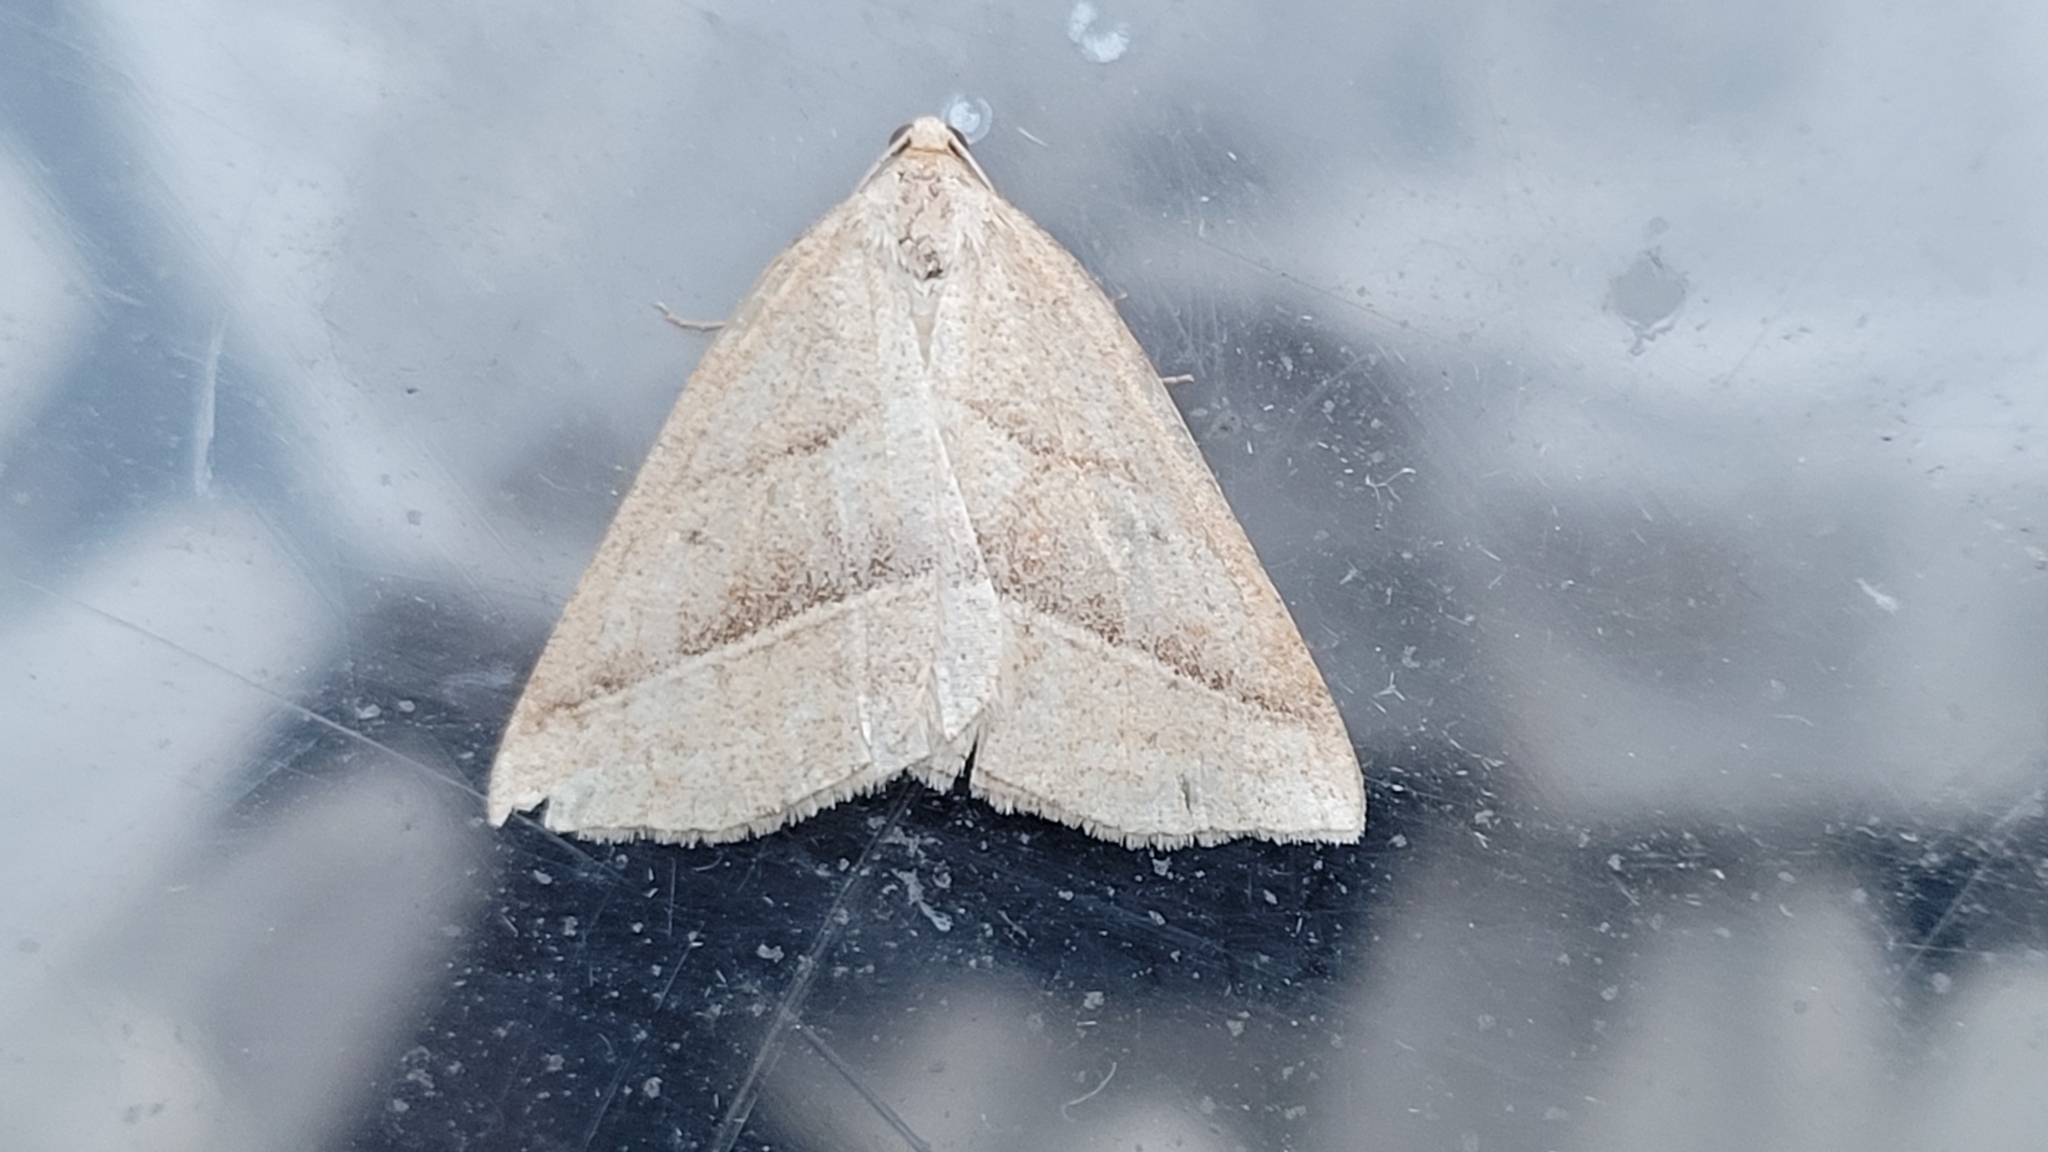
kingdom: Animalia
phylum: Arthropoda
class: Insecta
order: Lepidoptera
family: Pterophoridae
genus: Pterophorus
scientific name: Pterophorus Petrophora chlorosata
